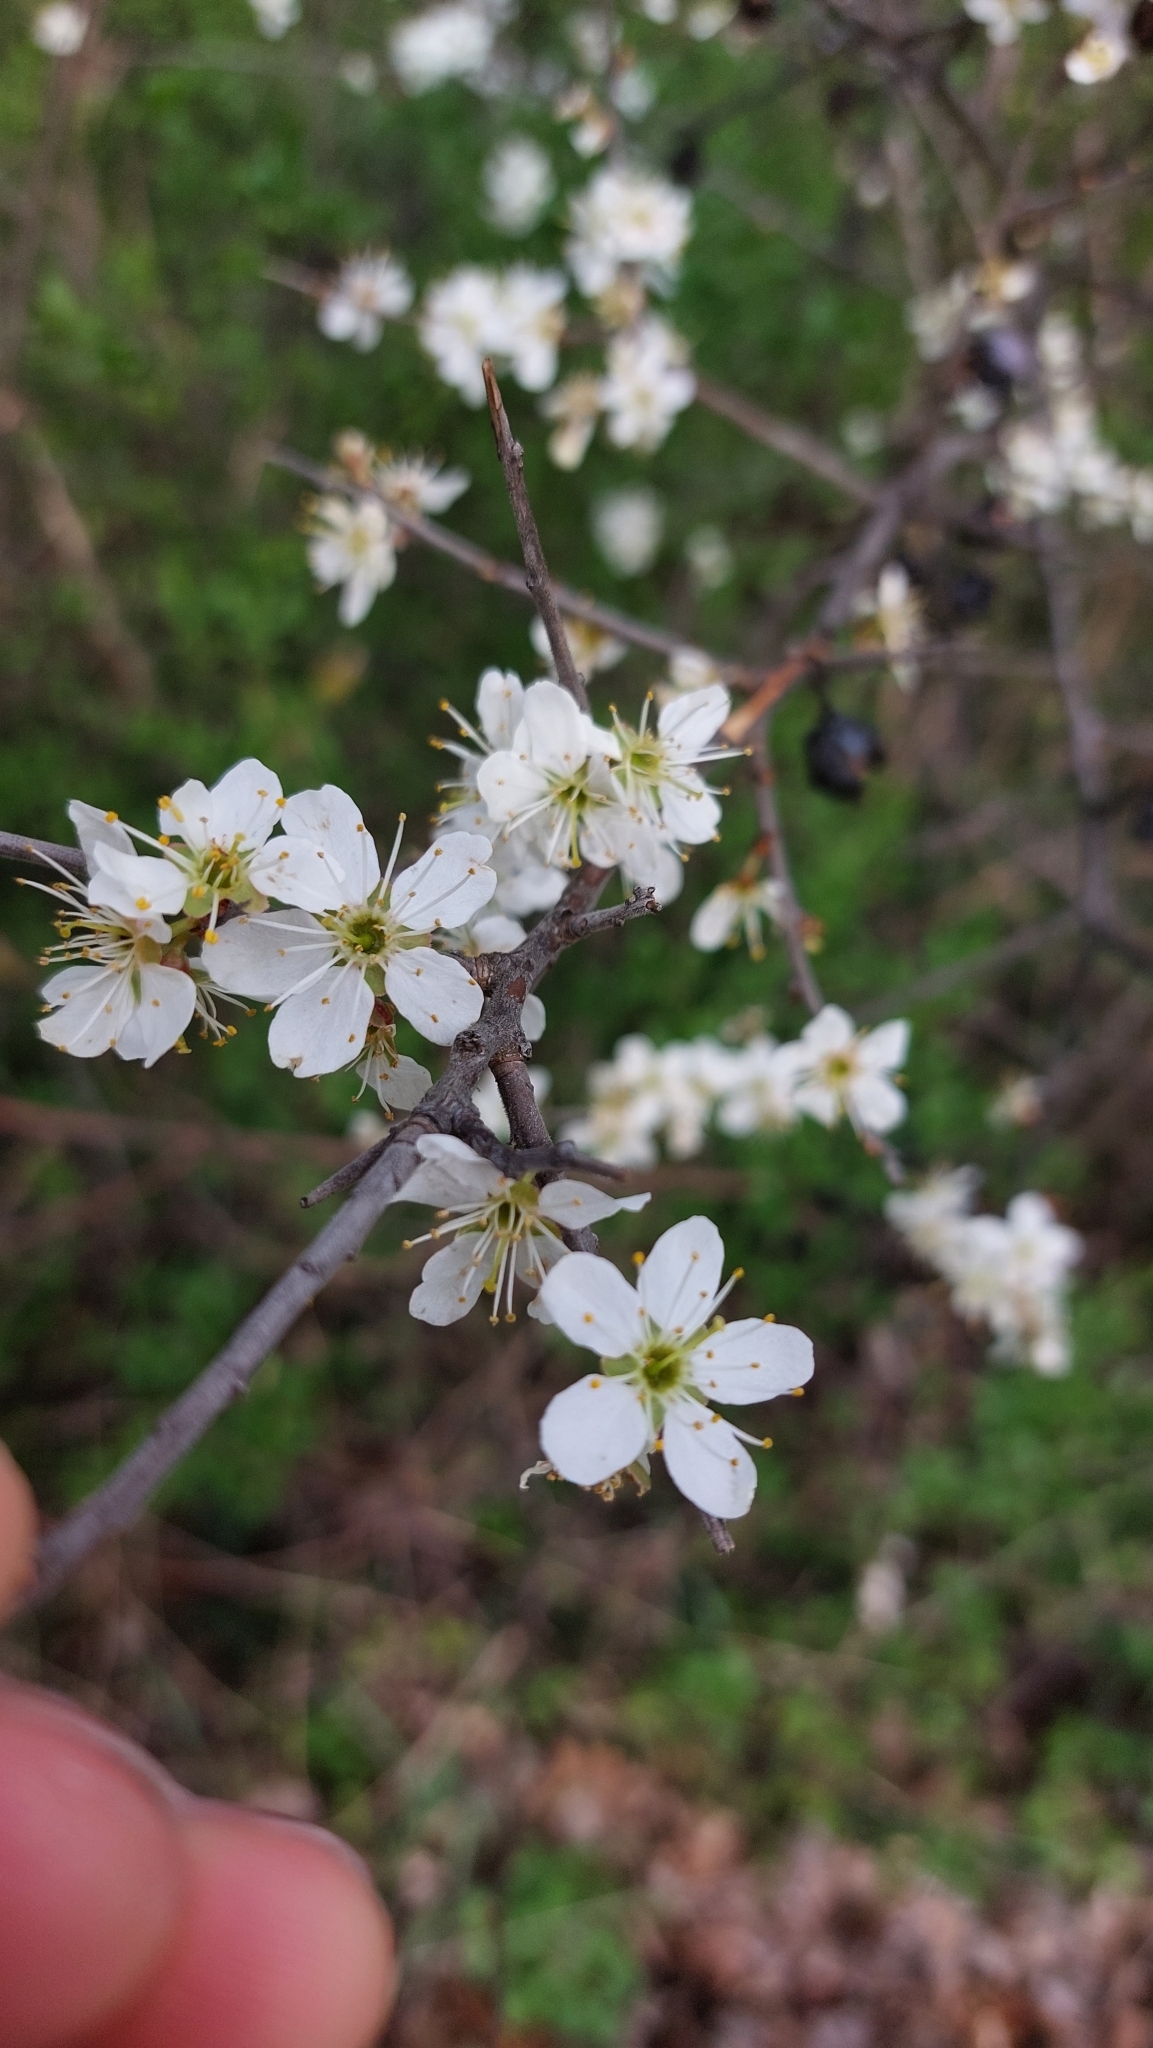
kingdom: Plantae
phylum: Tracheophyta
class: Magnoliopsida
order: Rosales
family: Rosaceae
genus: Prunus
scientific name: Prunus spinosa
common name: Blackthorn
